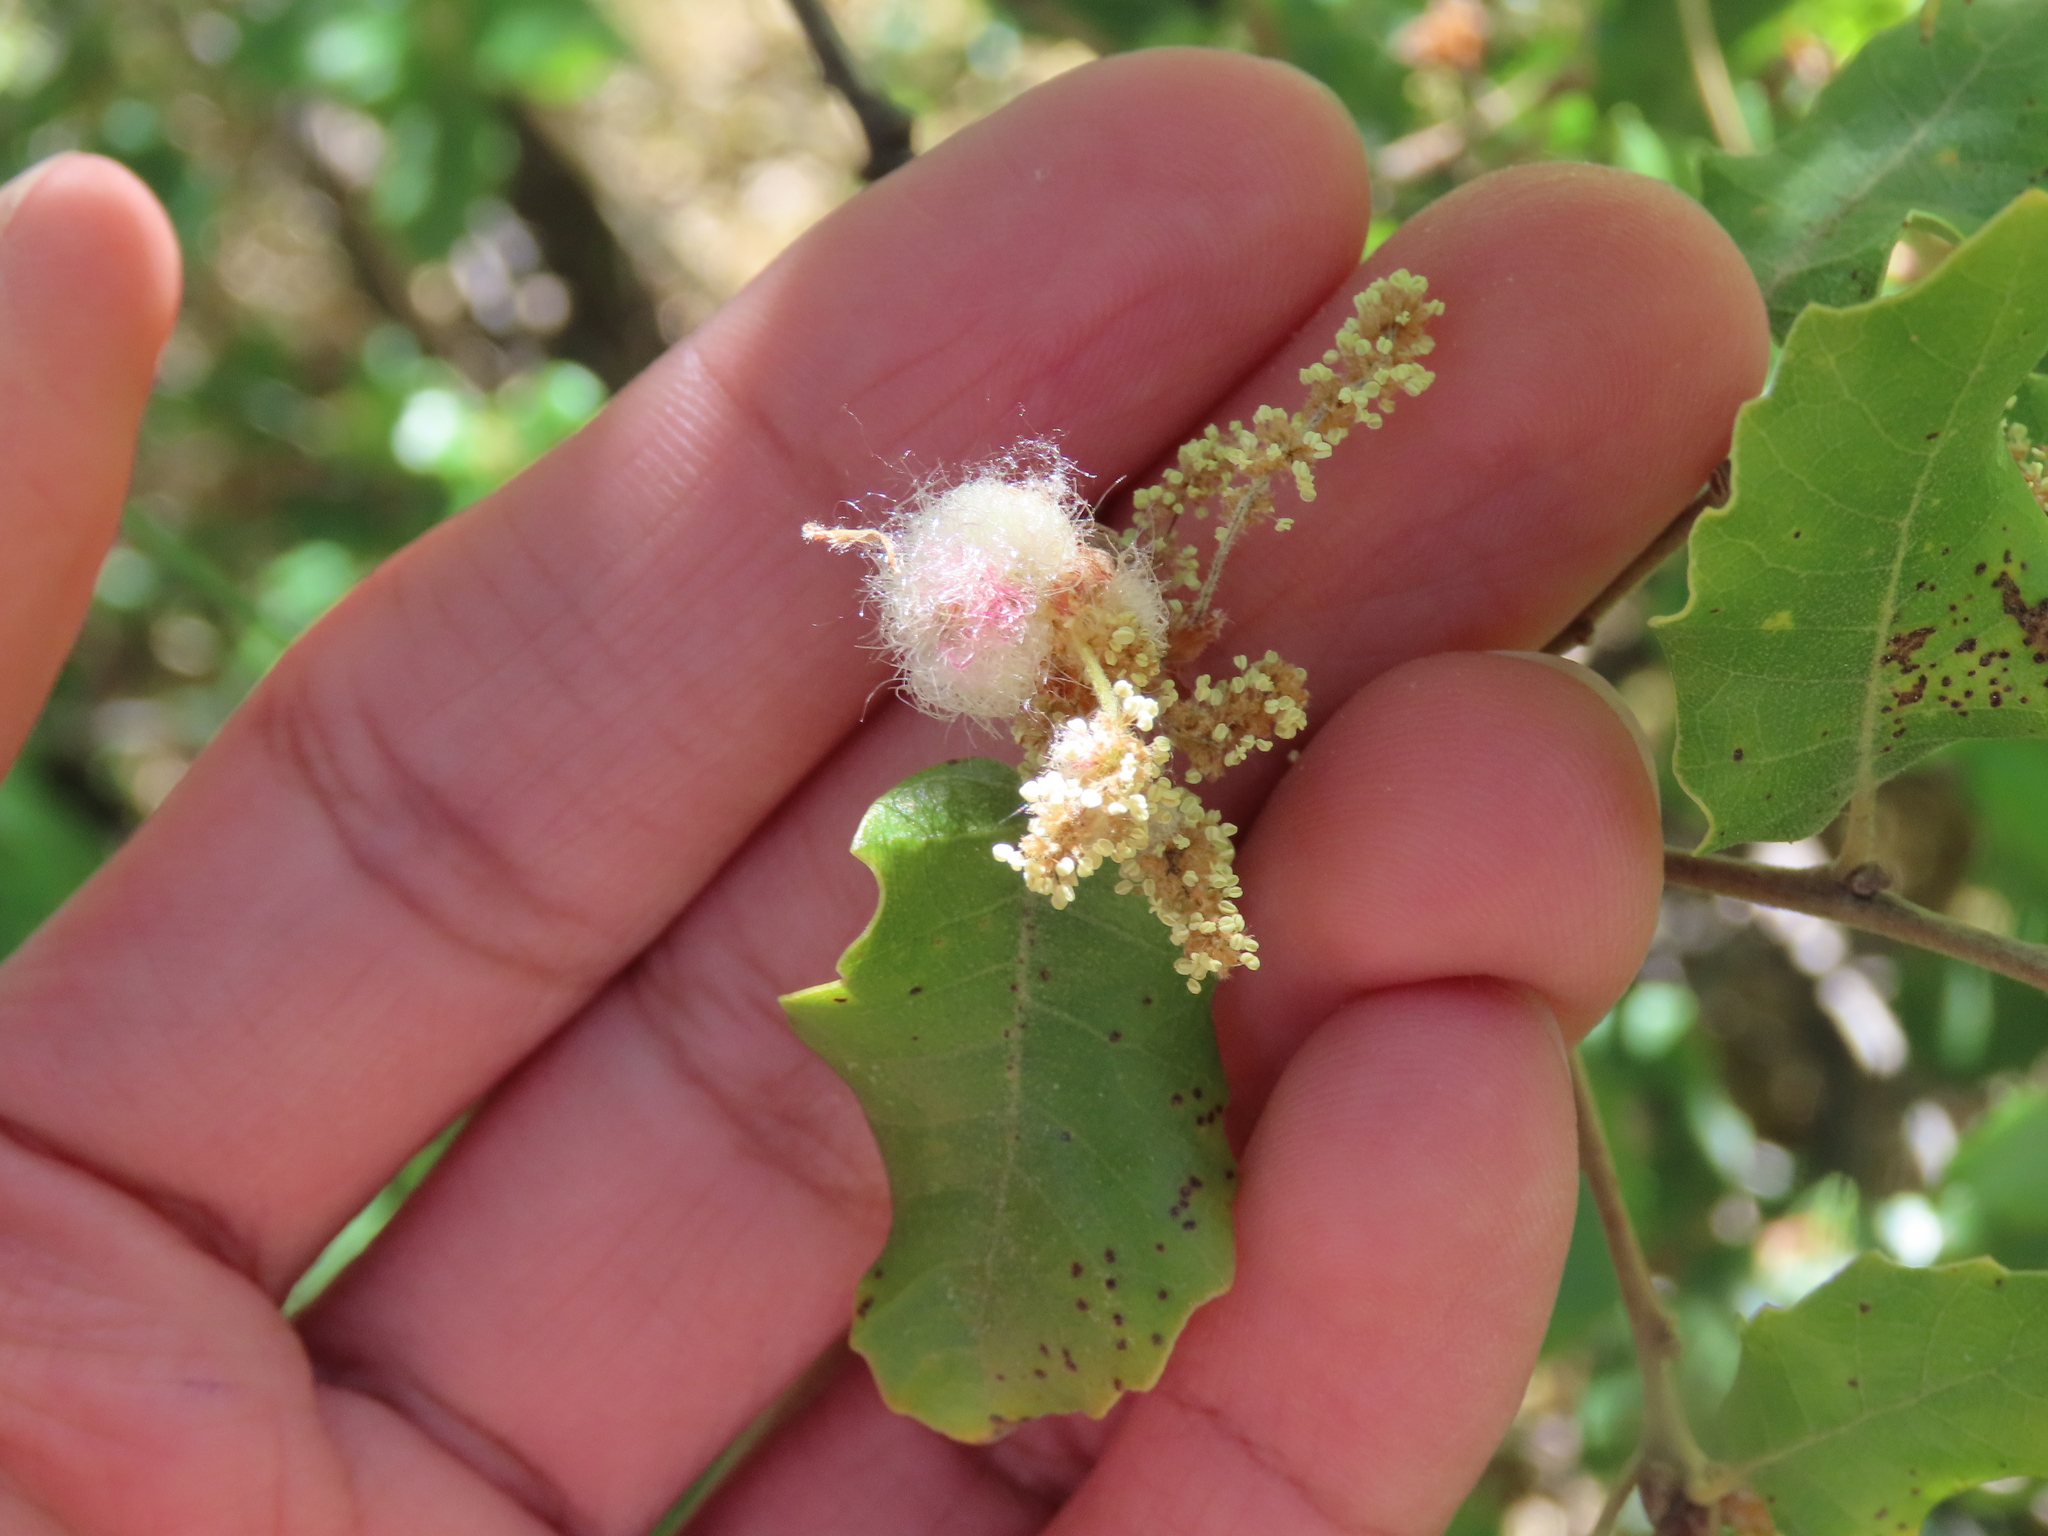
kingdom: Animalia
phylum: Arthropoda
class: Insecta
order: Hymenoptera
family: Cynipidae
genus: Andricus
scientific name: Andricus quercusramuli
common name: Cottonwool gall
